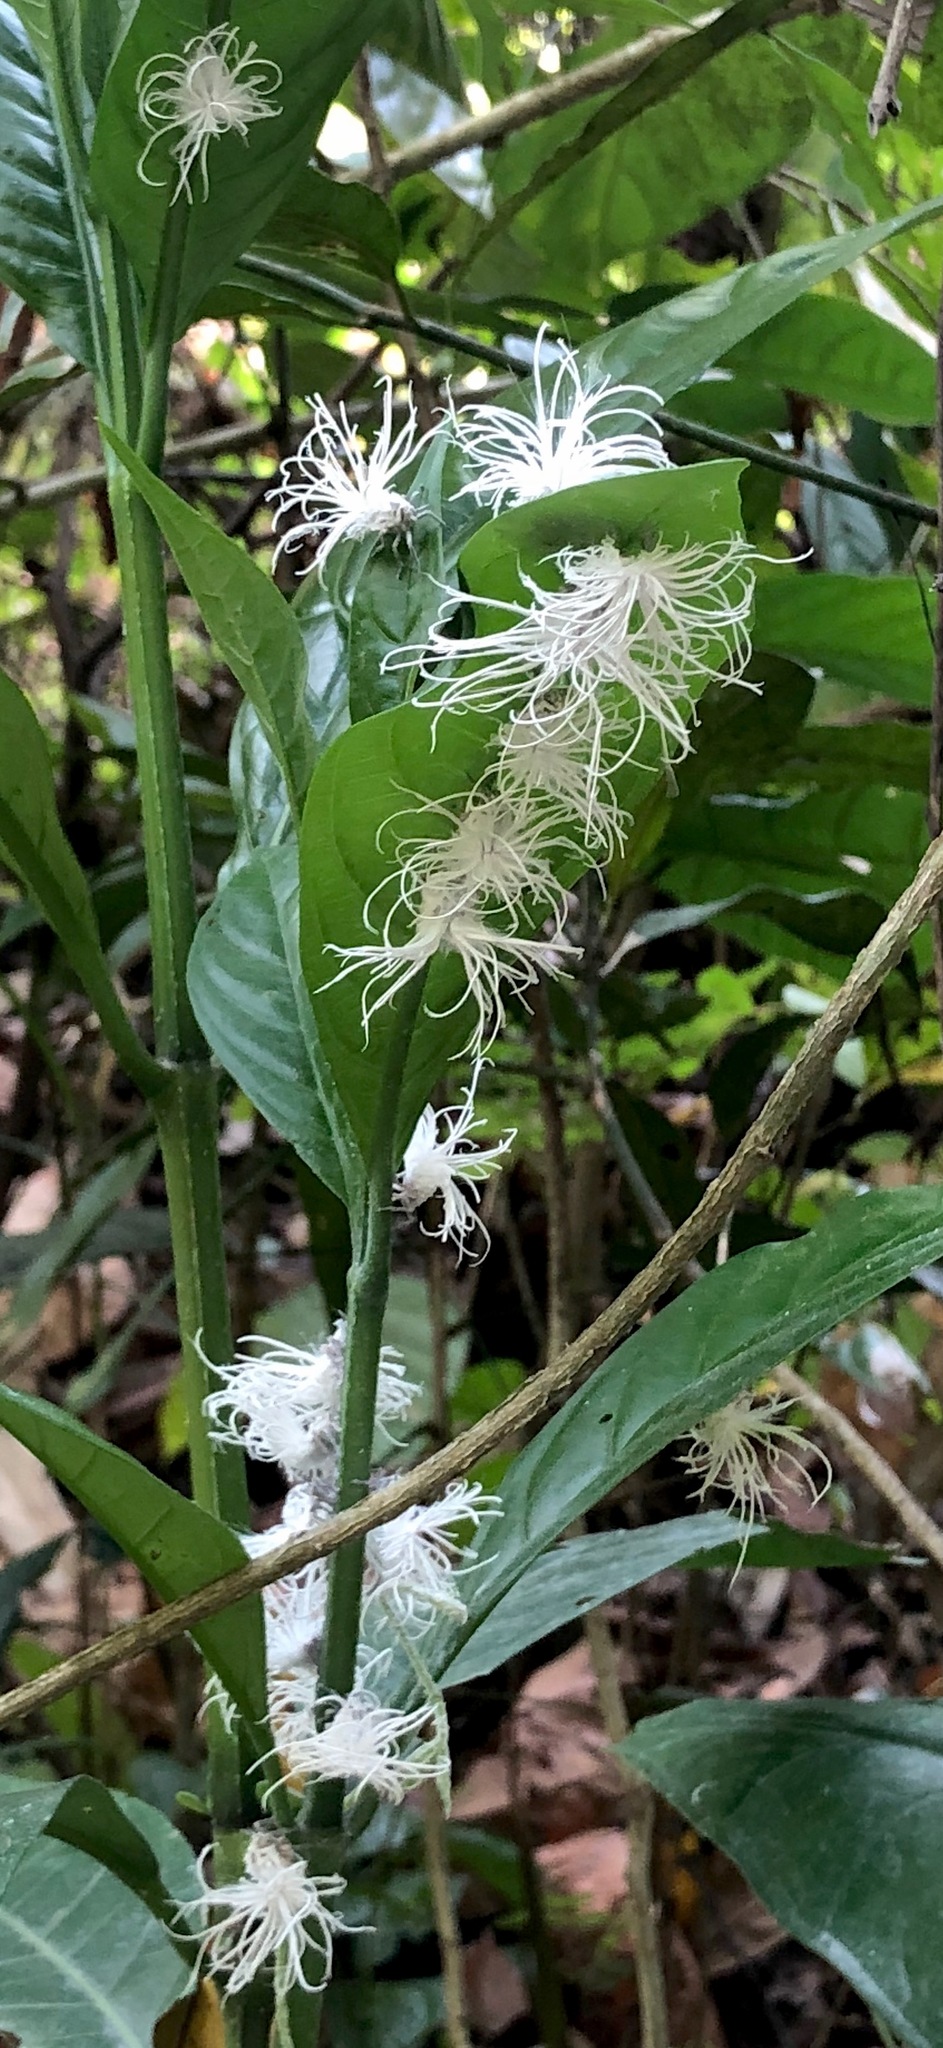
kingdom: Animalia
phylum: Arthropoda
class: Insecta
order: Hemiptera
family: Flatidae
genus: Flatida
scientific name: Flatida marginella
